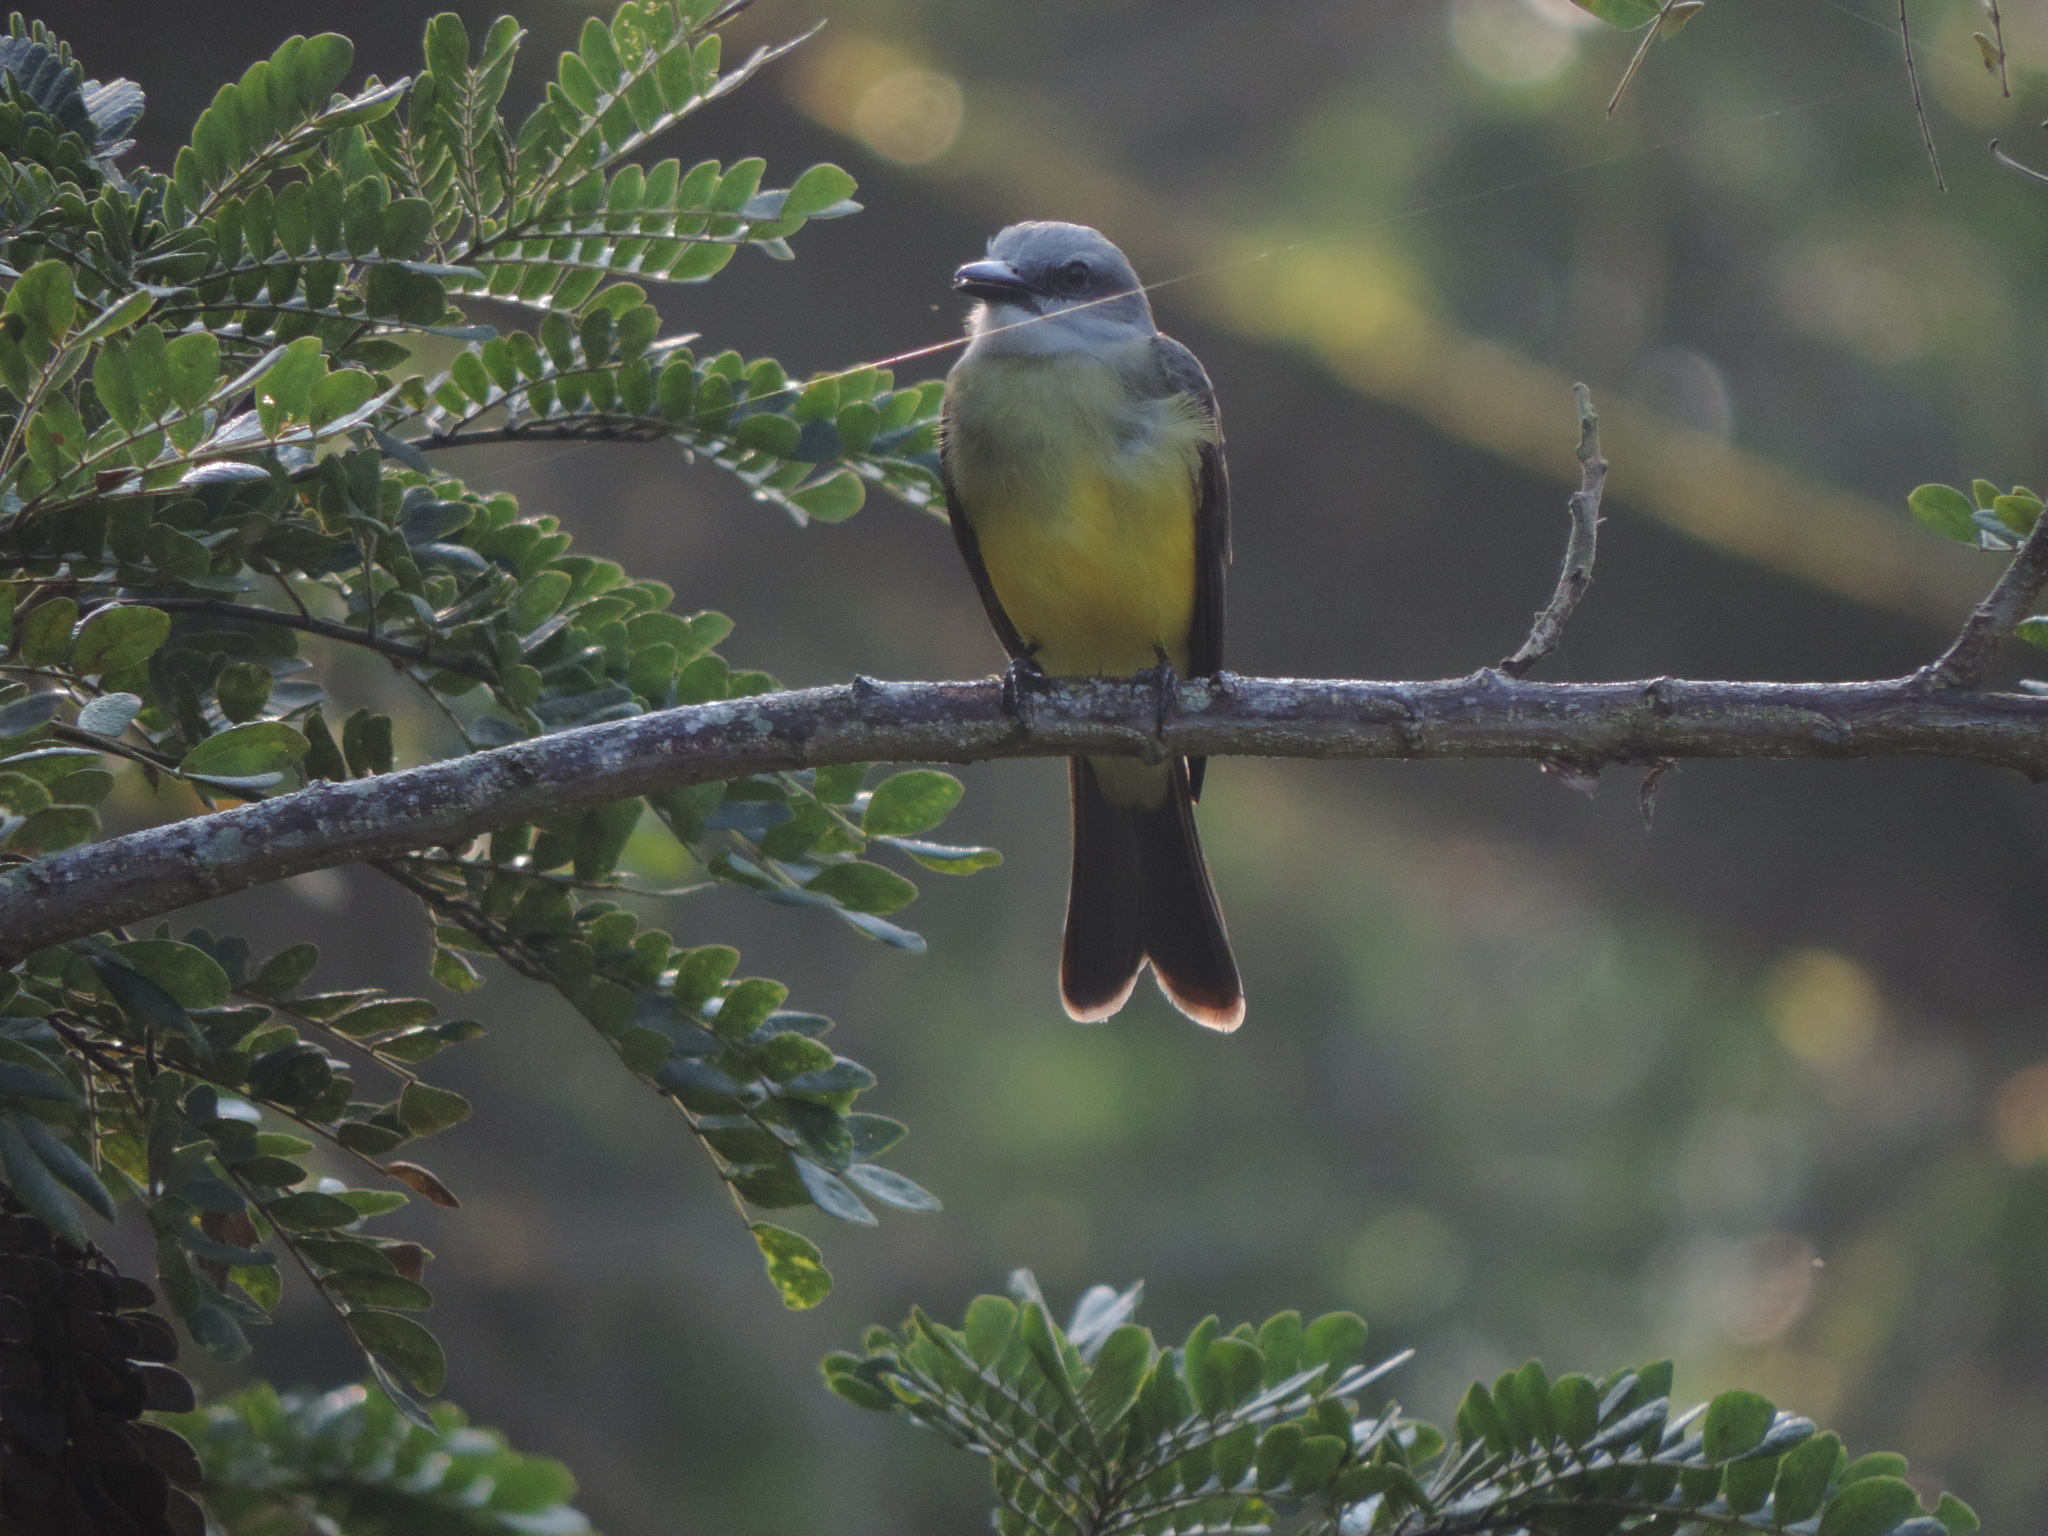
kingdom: Animalia
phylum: Chordata
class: Aves
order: Passeriformes
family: Tyrannidae
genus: Tyrannus
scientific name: Tyrannus melancholicus
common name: Tropical kingbird
